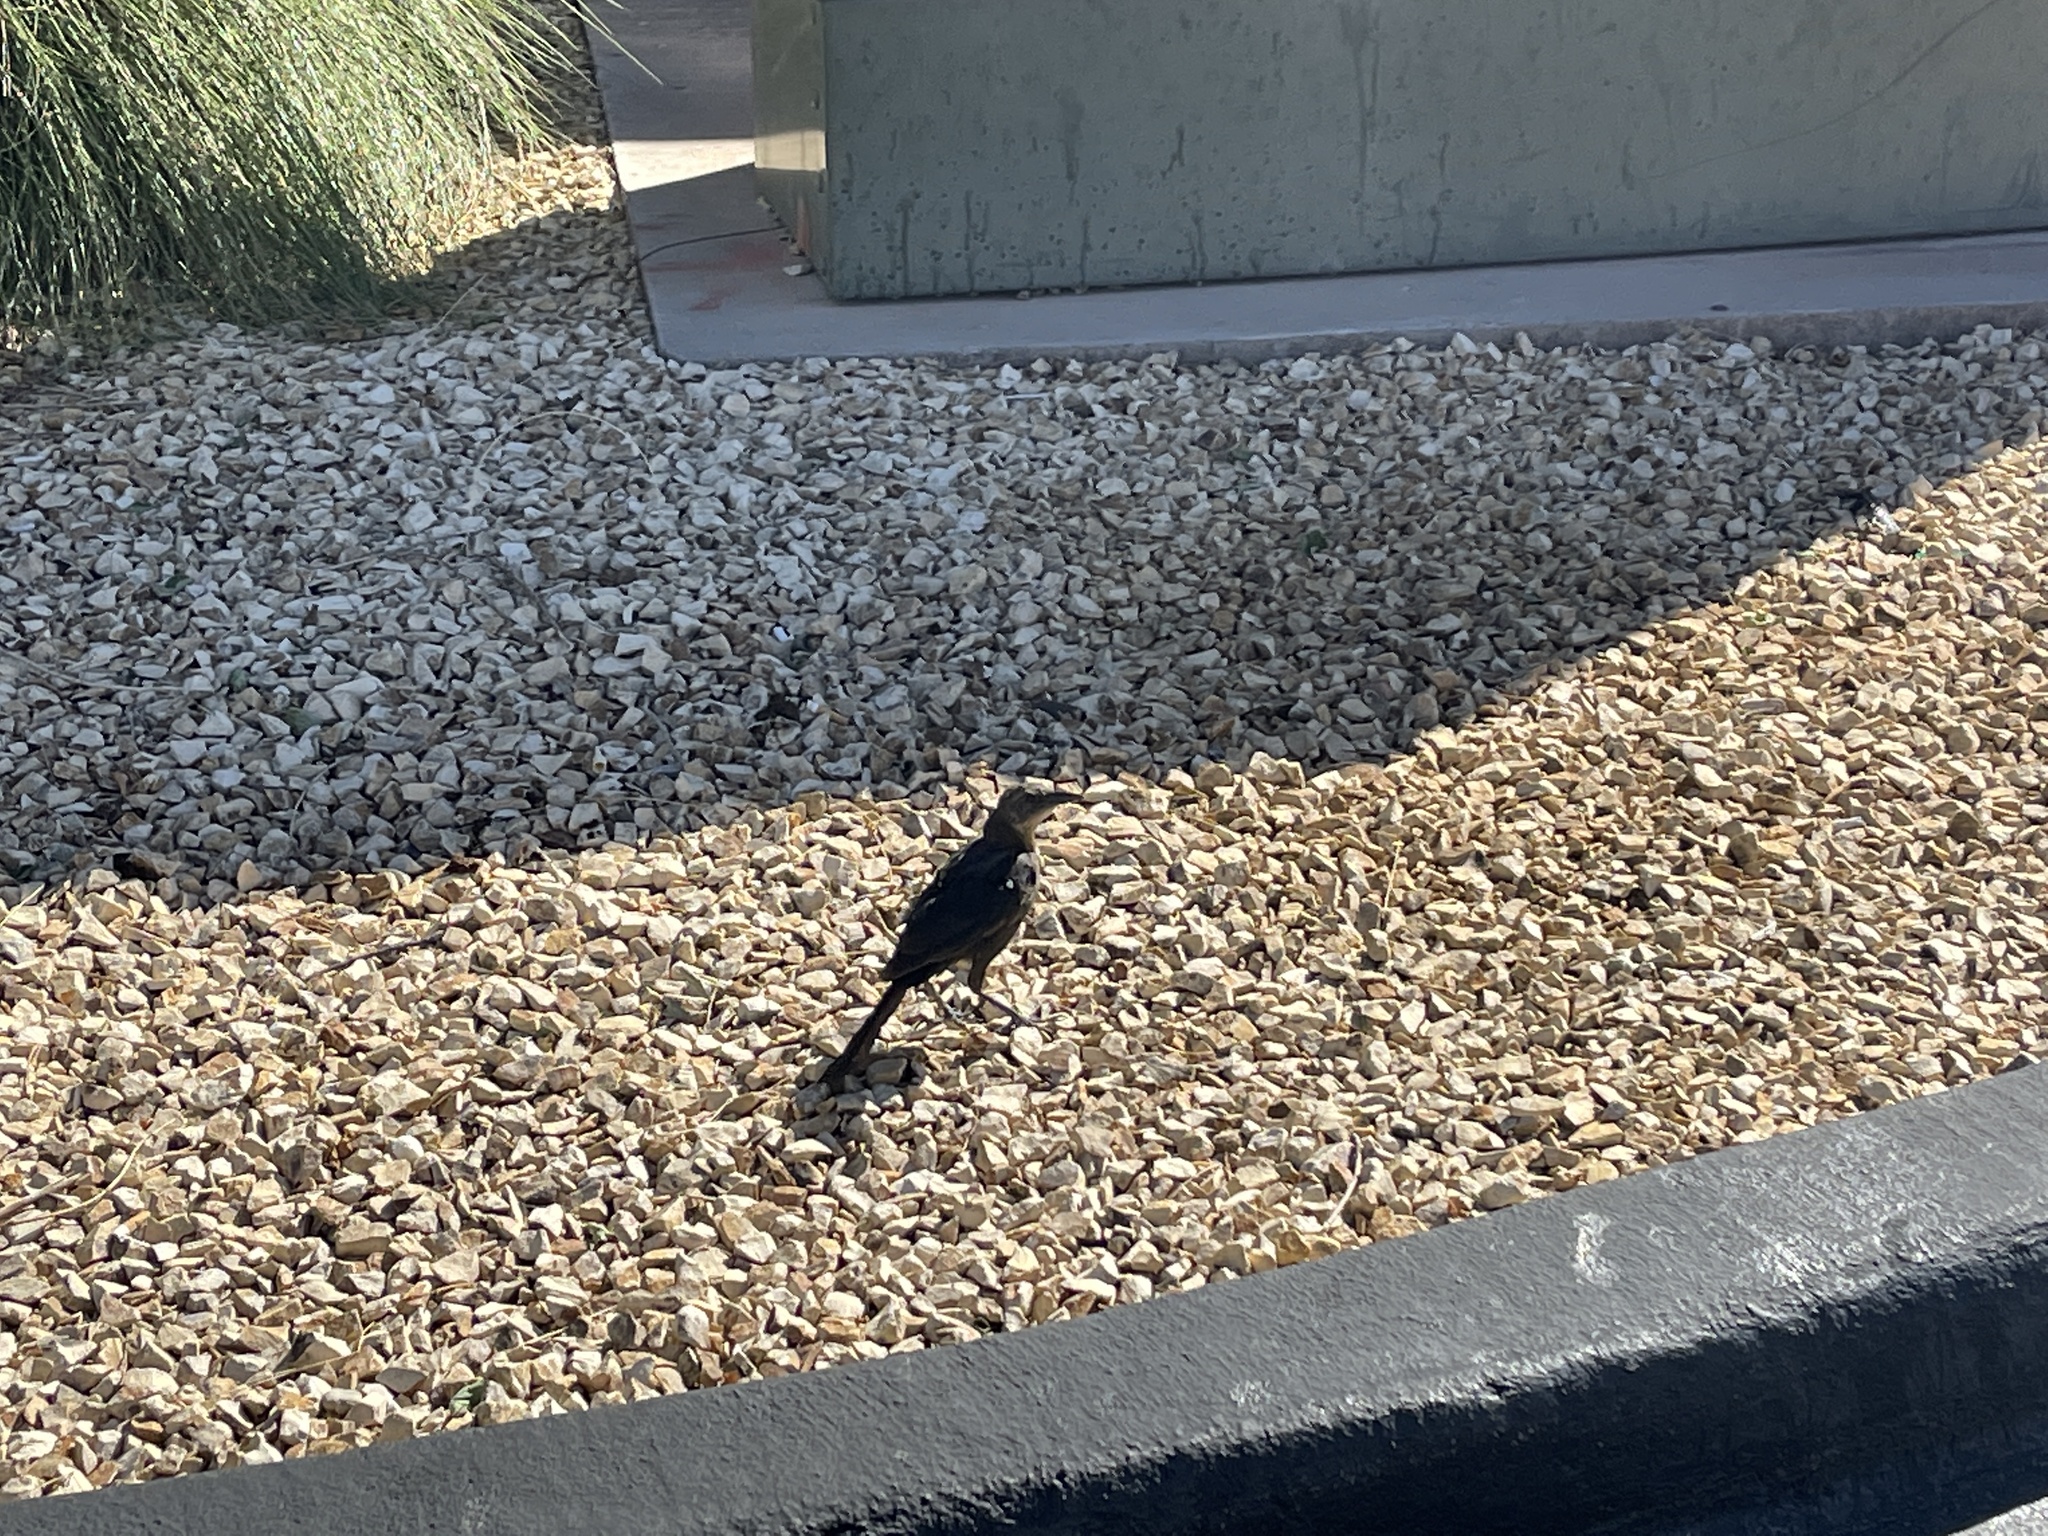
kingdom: Animalia
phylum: Chordata
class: Aves
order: Passeriformes
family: Icteridae
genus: Quiscalus
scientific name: Quiscalus mexicanus
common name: Great-tailed grackle
